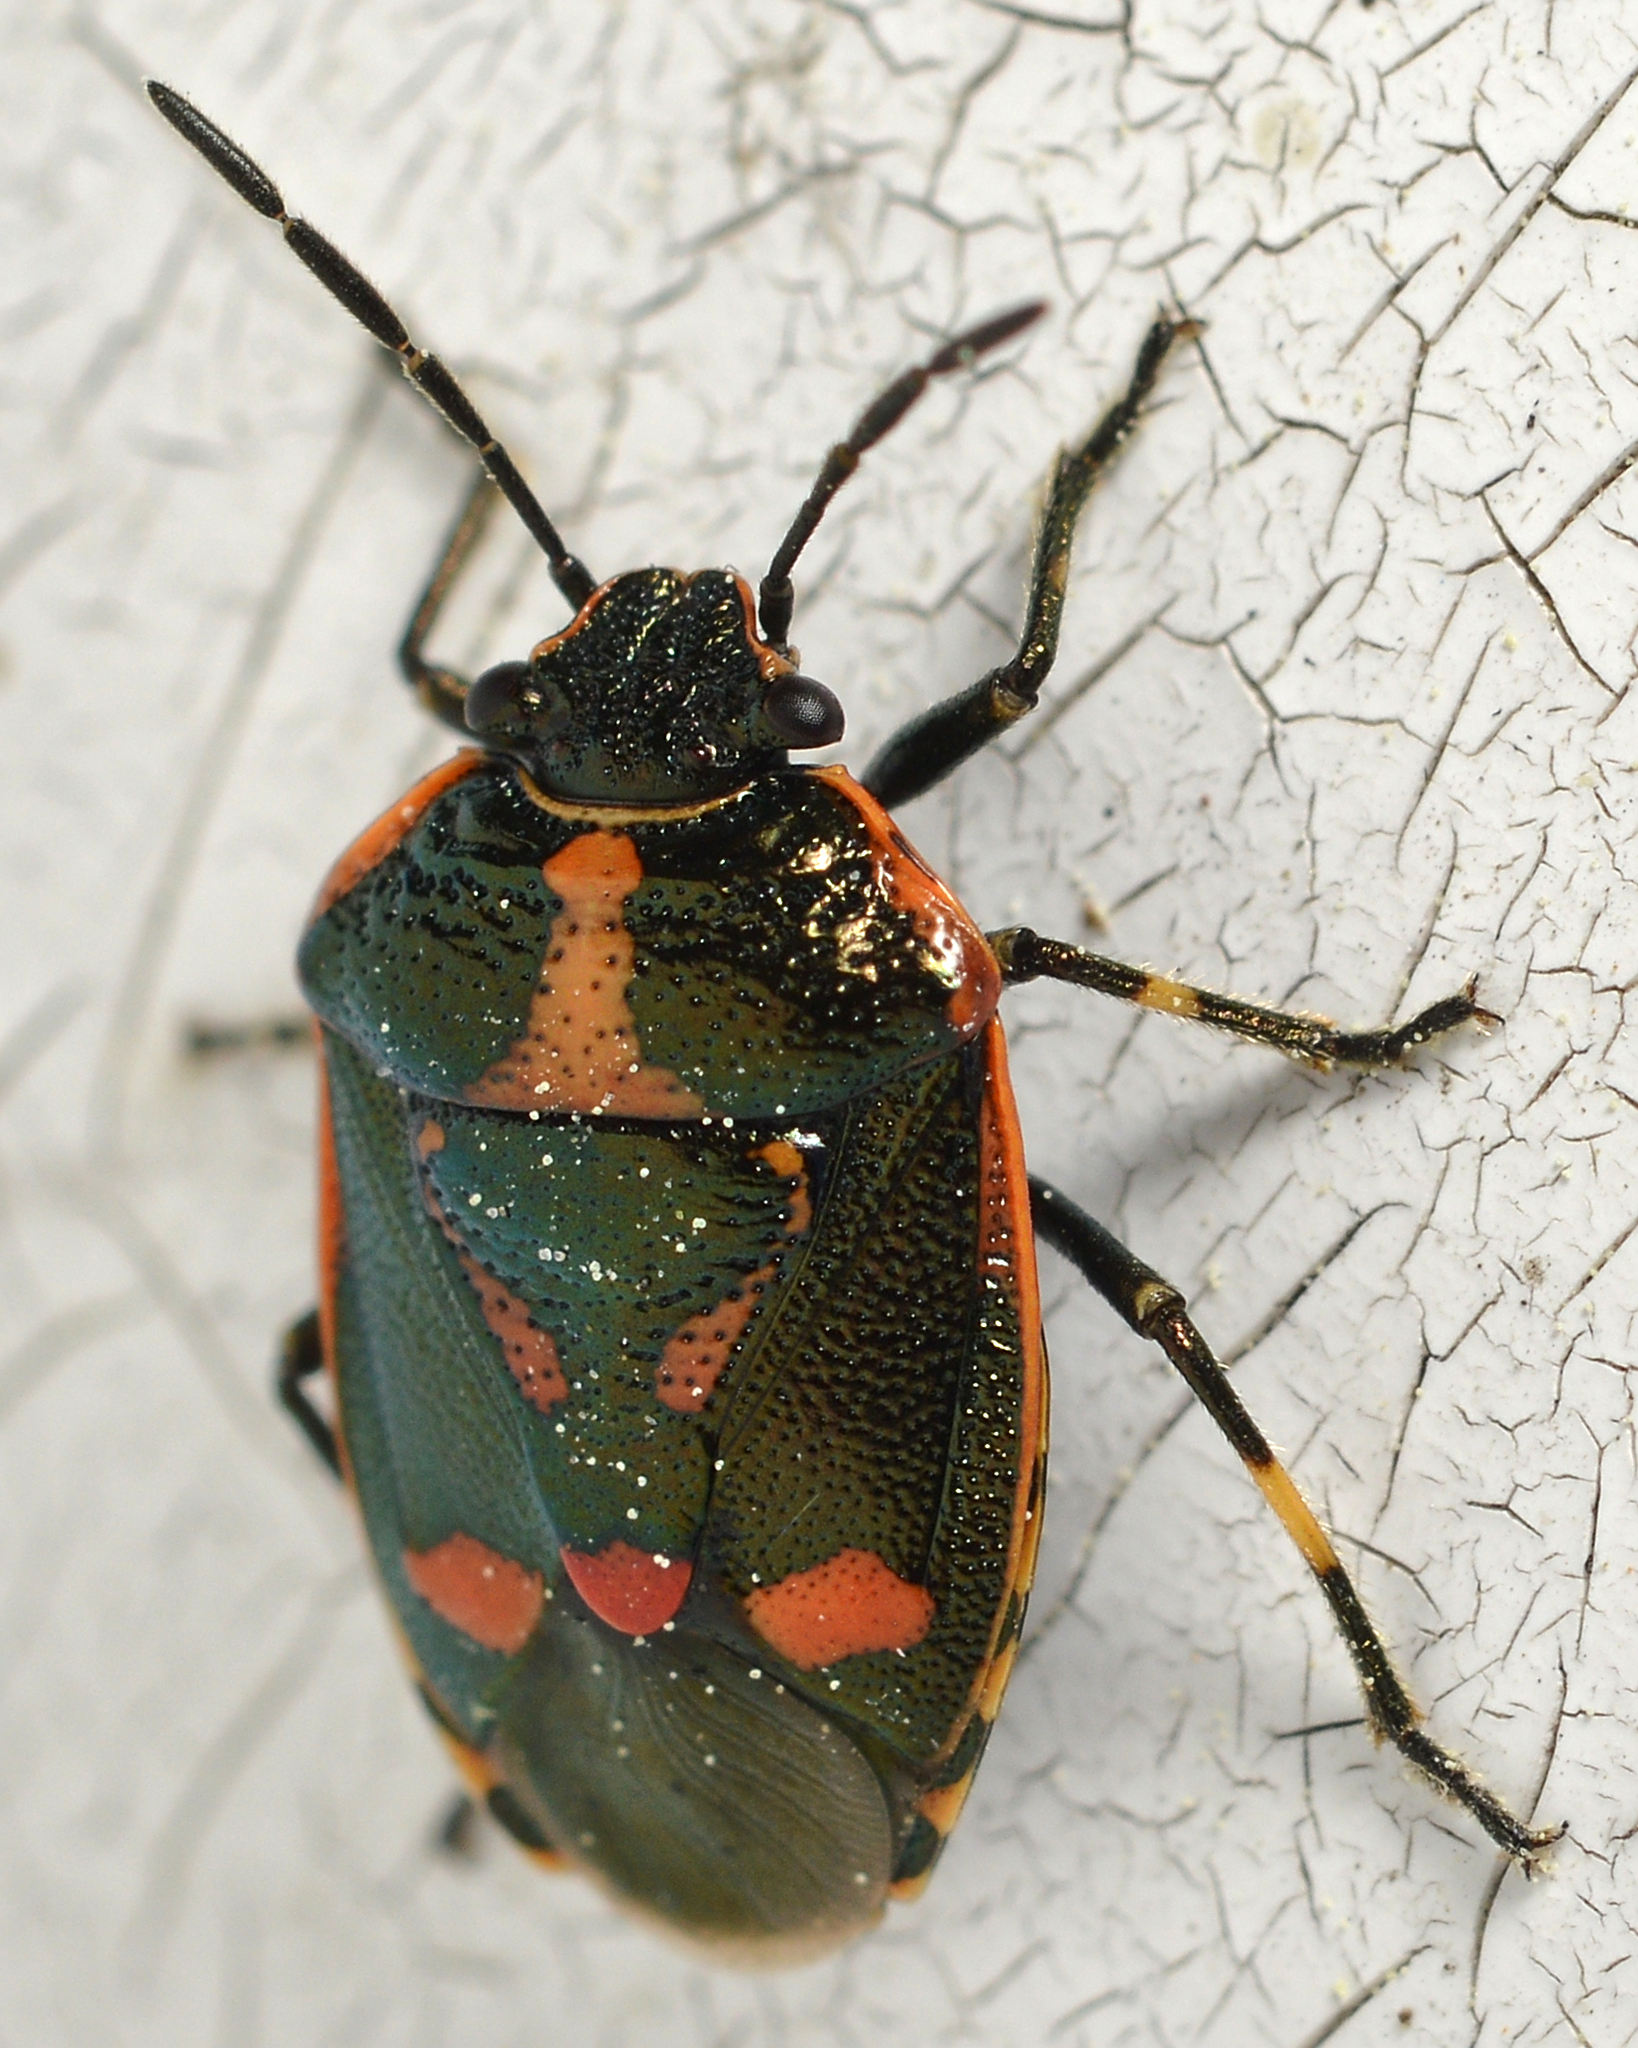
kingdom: Animalia
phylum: Arthropoda
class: Insecta
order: Hemiptera
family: Pentatomidae
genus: Eurydema
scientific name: Eurydema oleracea
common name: Cabbage bug
